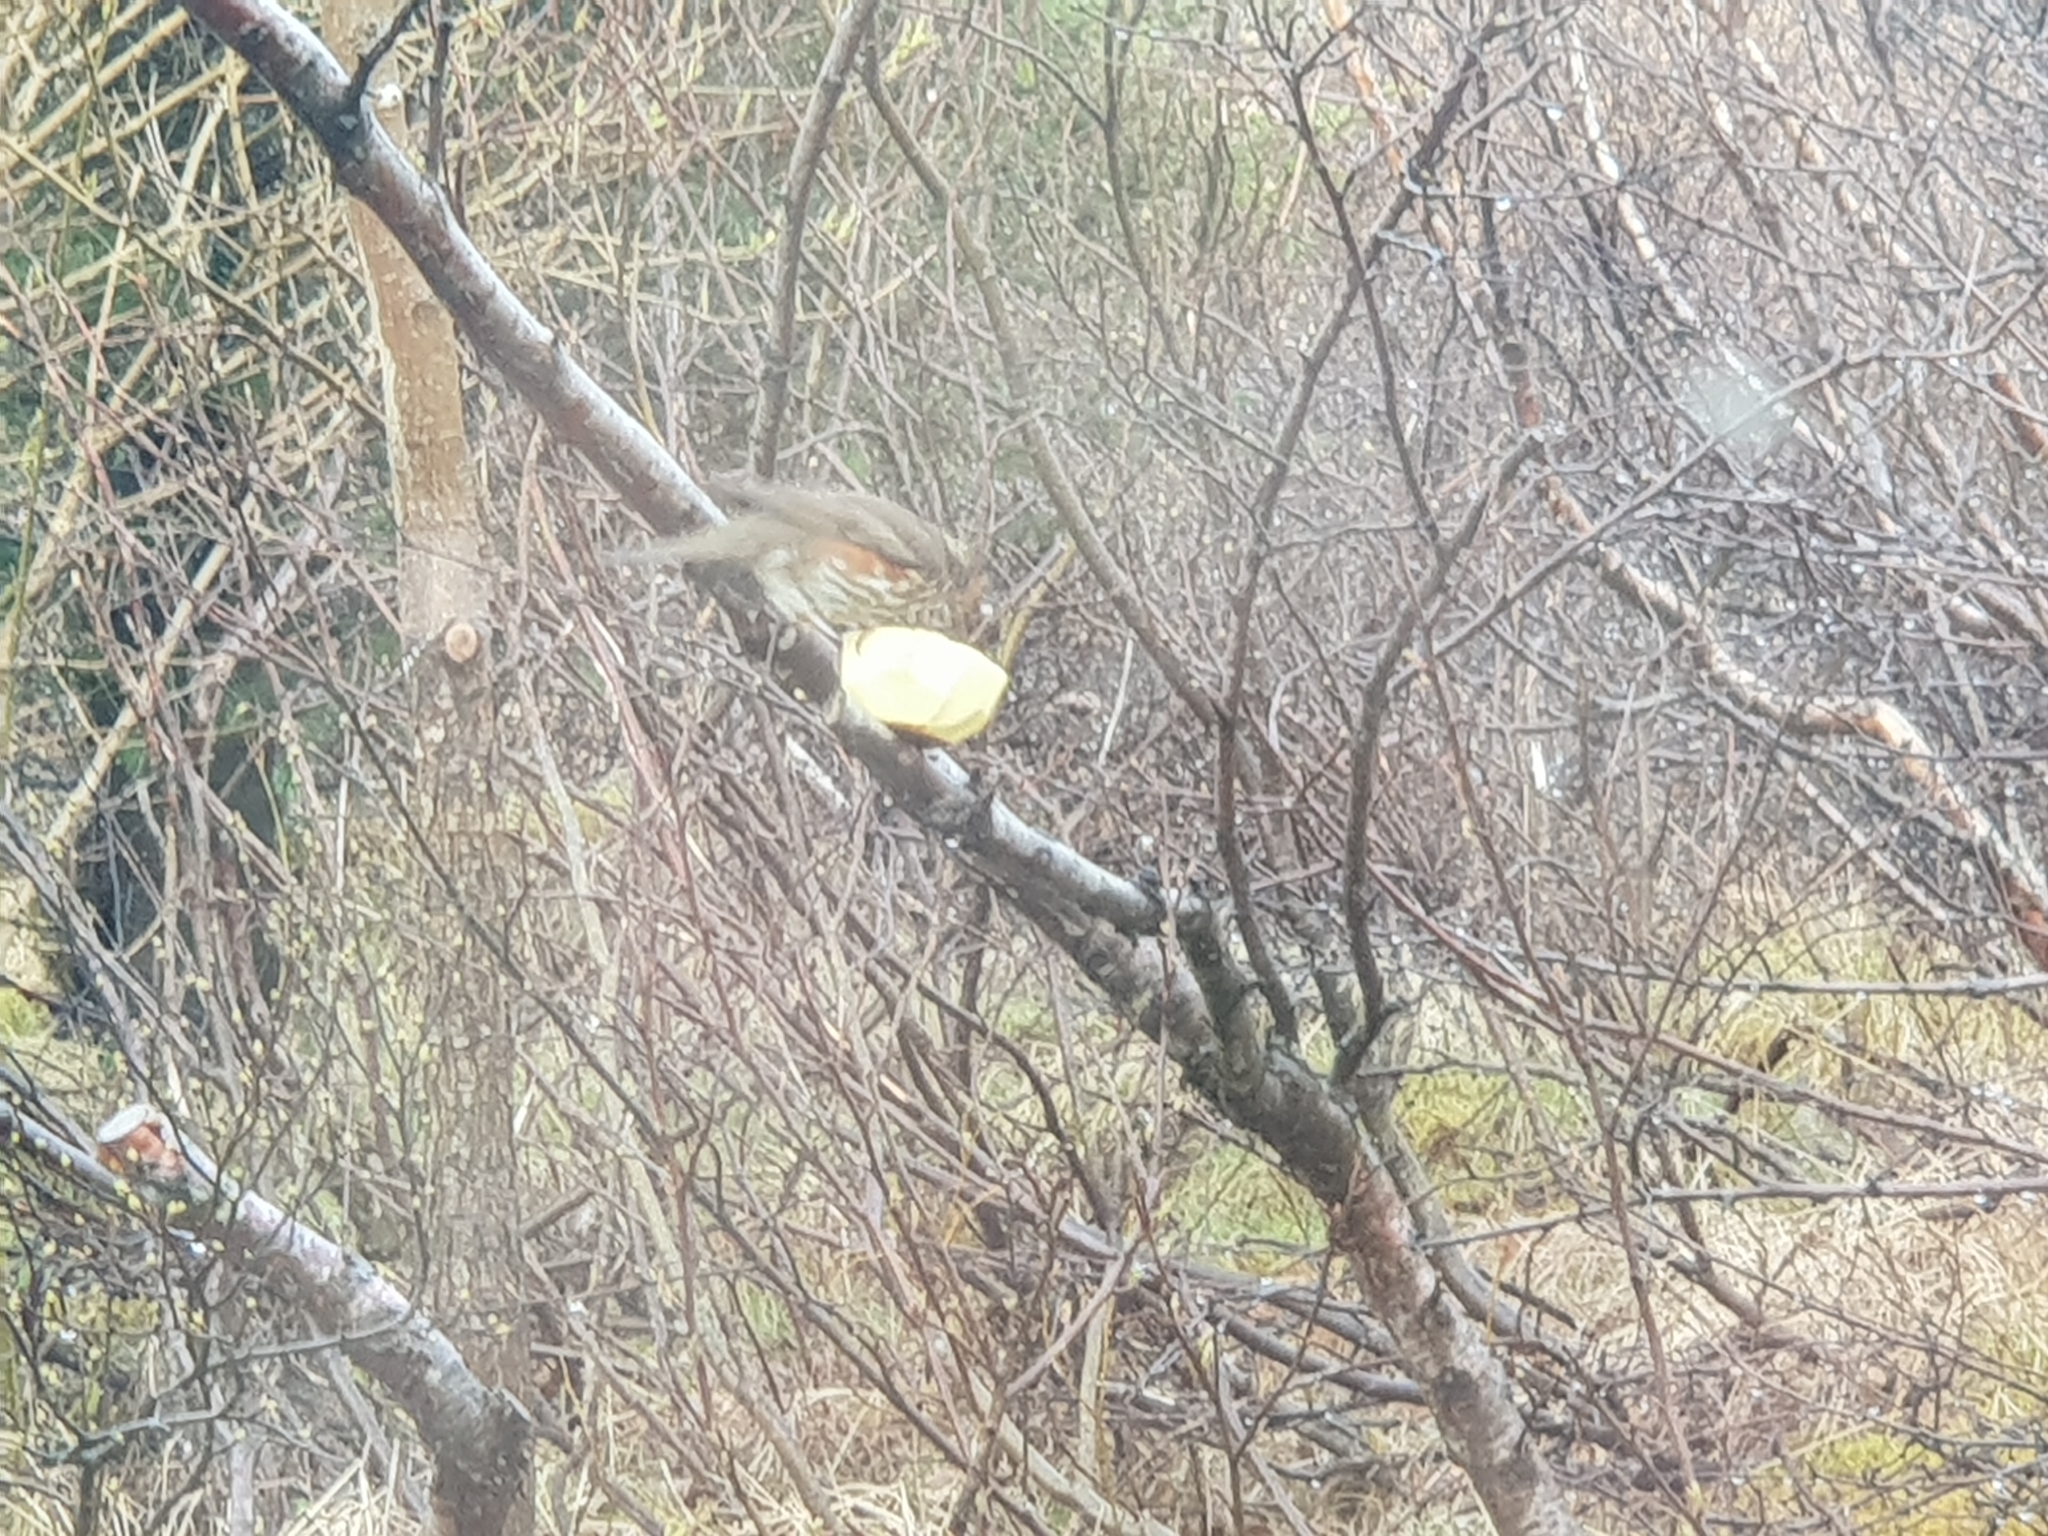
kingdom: Animalia
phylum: Chordata
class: Aves
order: Passeriformes
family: Turdidae
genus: Turdus
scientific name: Turdus iliacus
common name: Redwing
